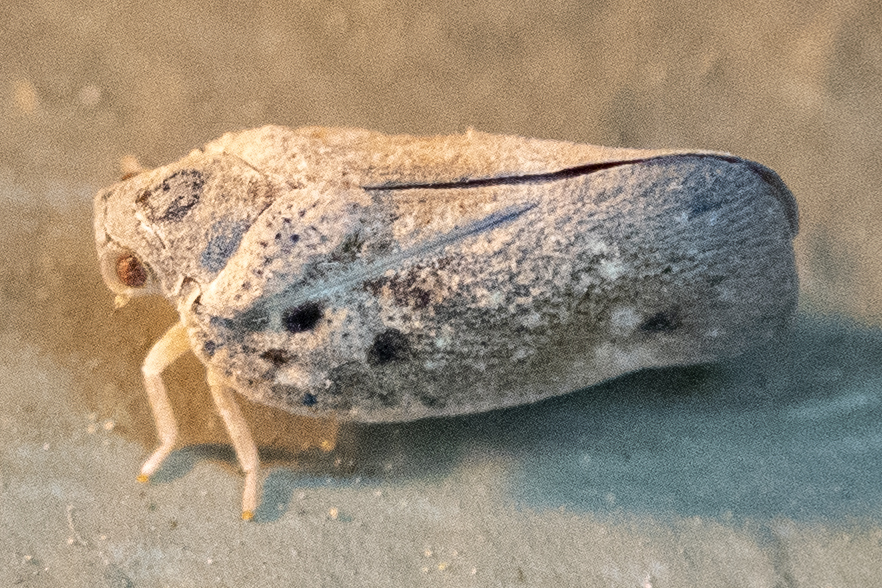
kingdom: Animalia
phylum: Arthropoda
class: Insecta
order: Hemiptera
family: Flatidae
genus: Metcalfa
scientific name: Metcalfa pruinosa
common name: Citrus flatid planthopper
